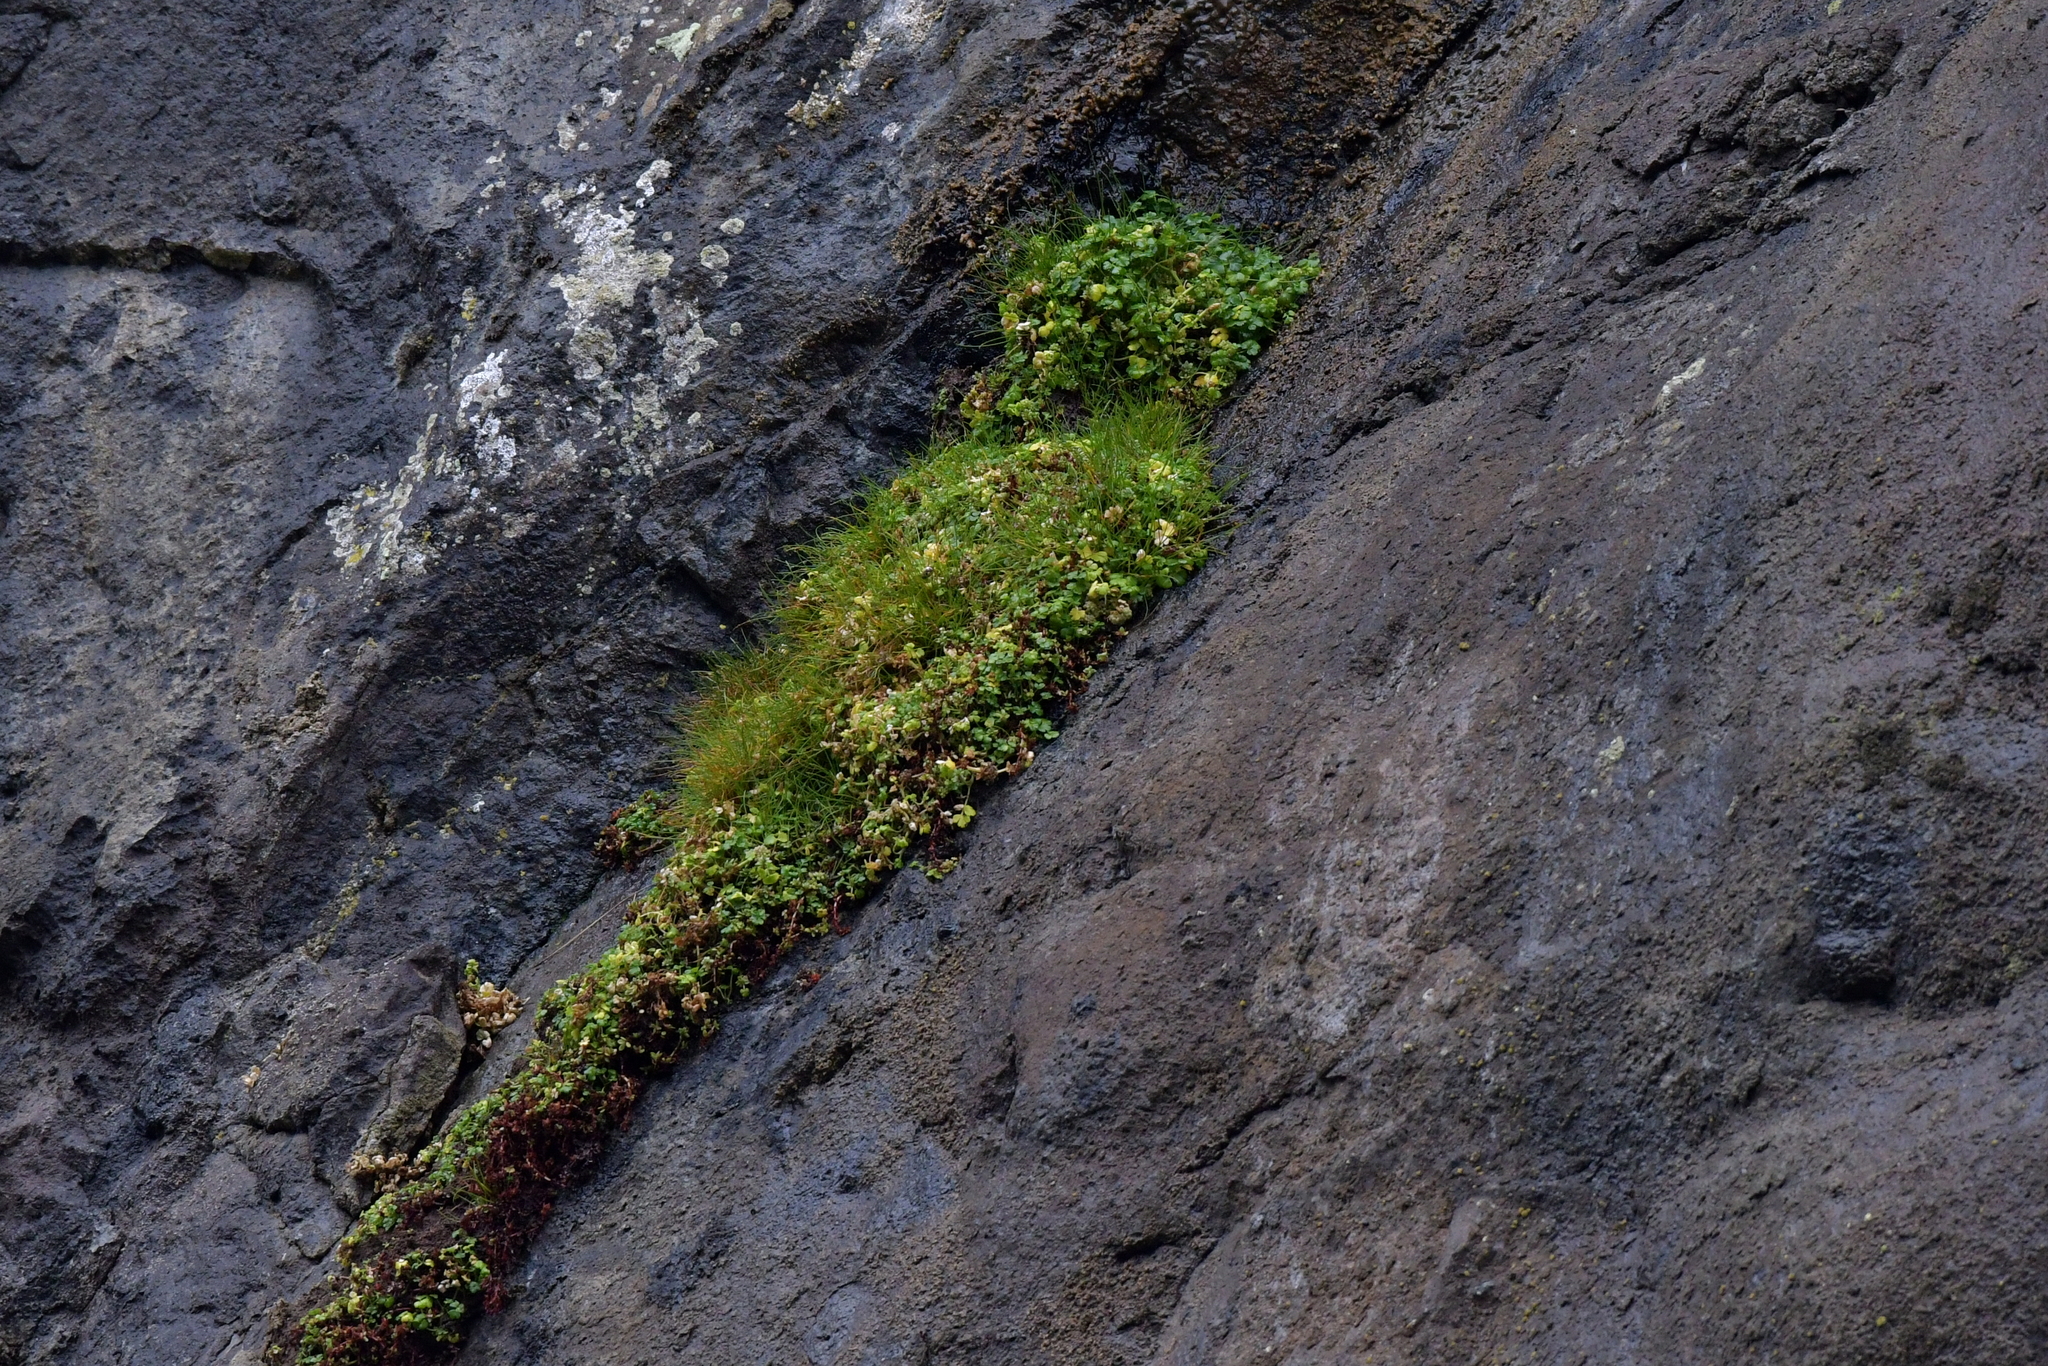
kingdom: Plantae
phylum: Tracheophyta
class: Magnoliopsida
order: Apiales
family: Apiaceae
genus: Apium
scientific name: Apium prostratum
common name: Prostrate marshwort
